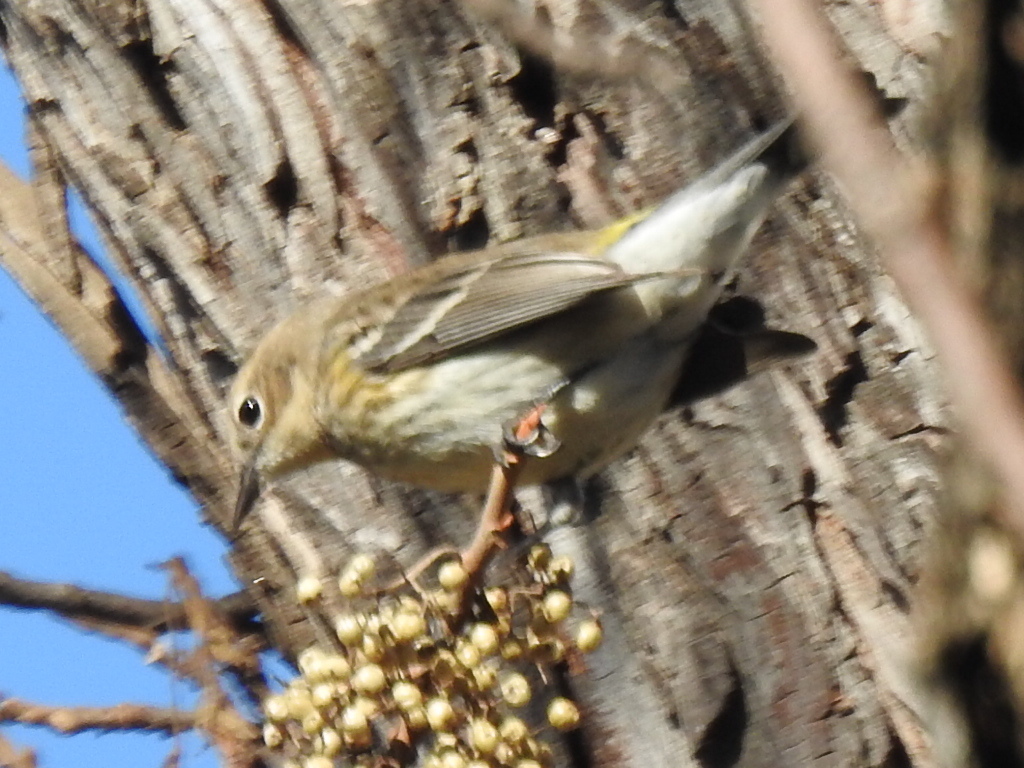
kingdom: Animalia
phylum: Chordata
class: Aves
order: Passeriformes
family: Parulidae
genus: Setophaga
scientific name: Setophaga coronata
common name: Myrtle warbler
